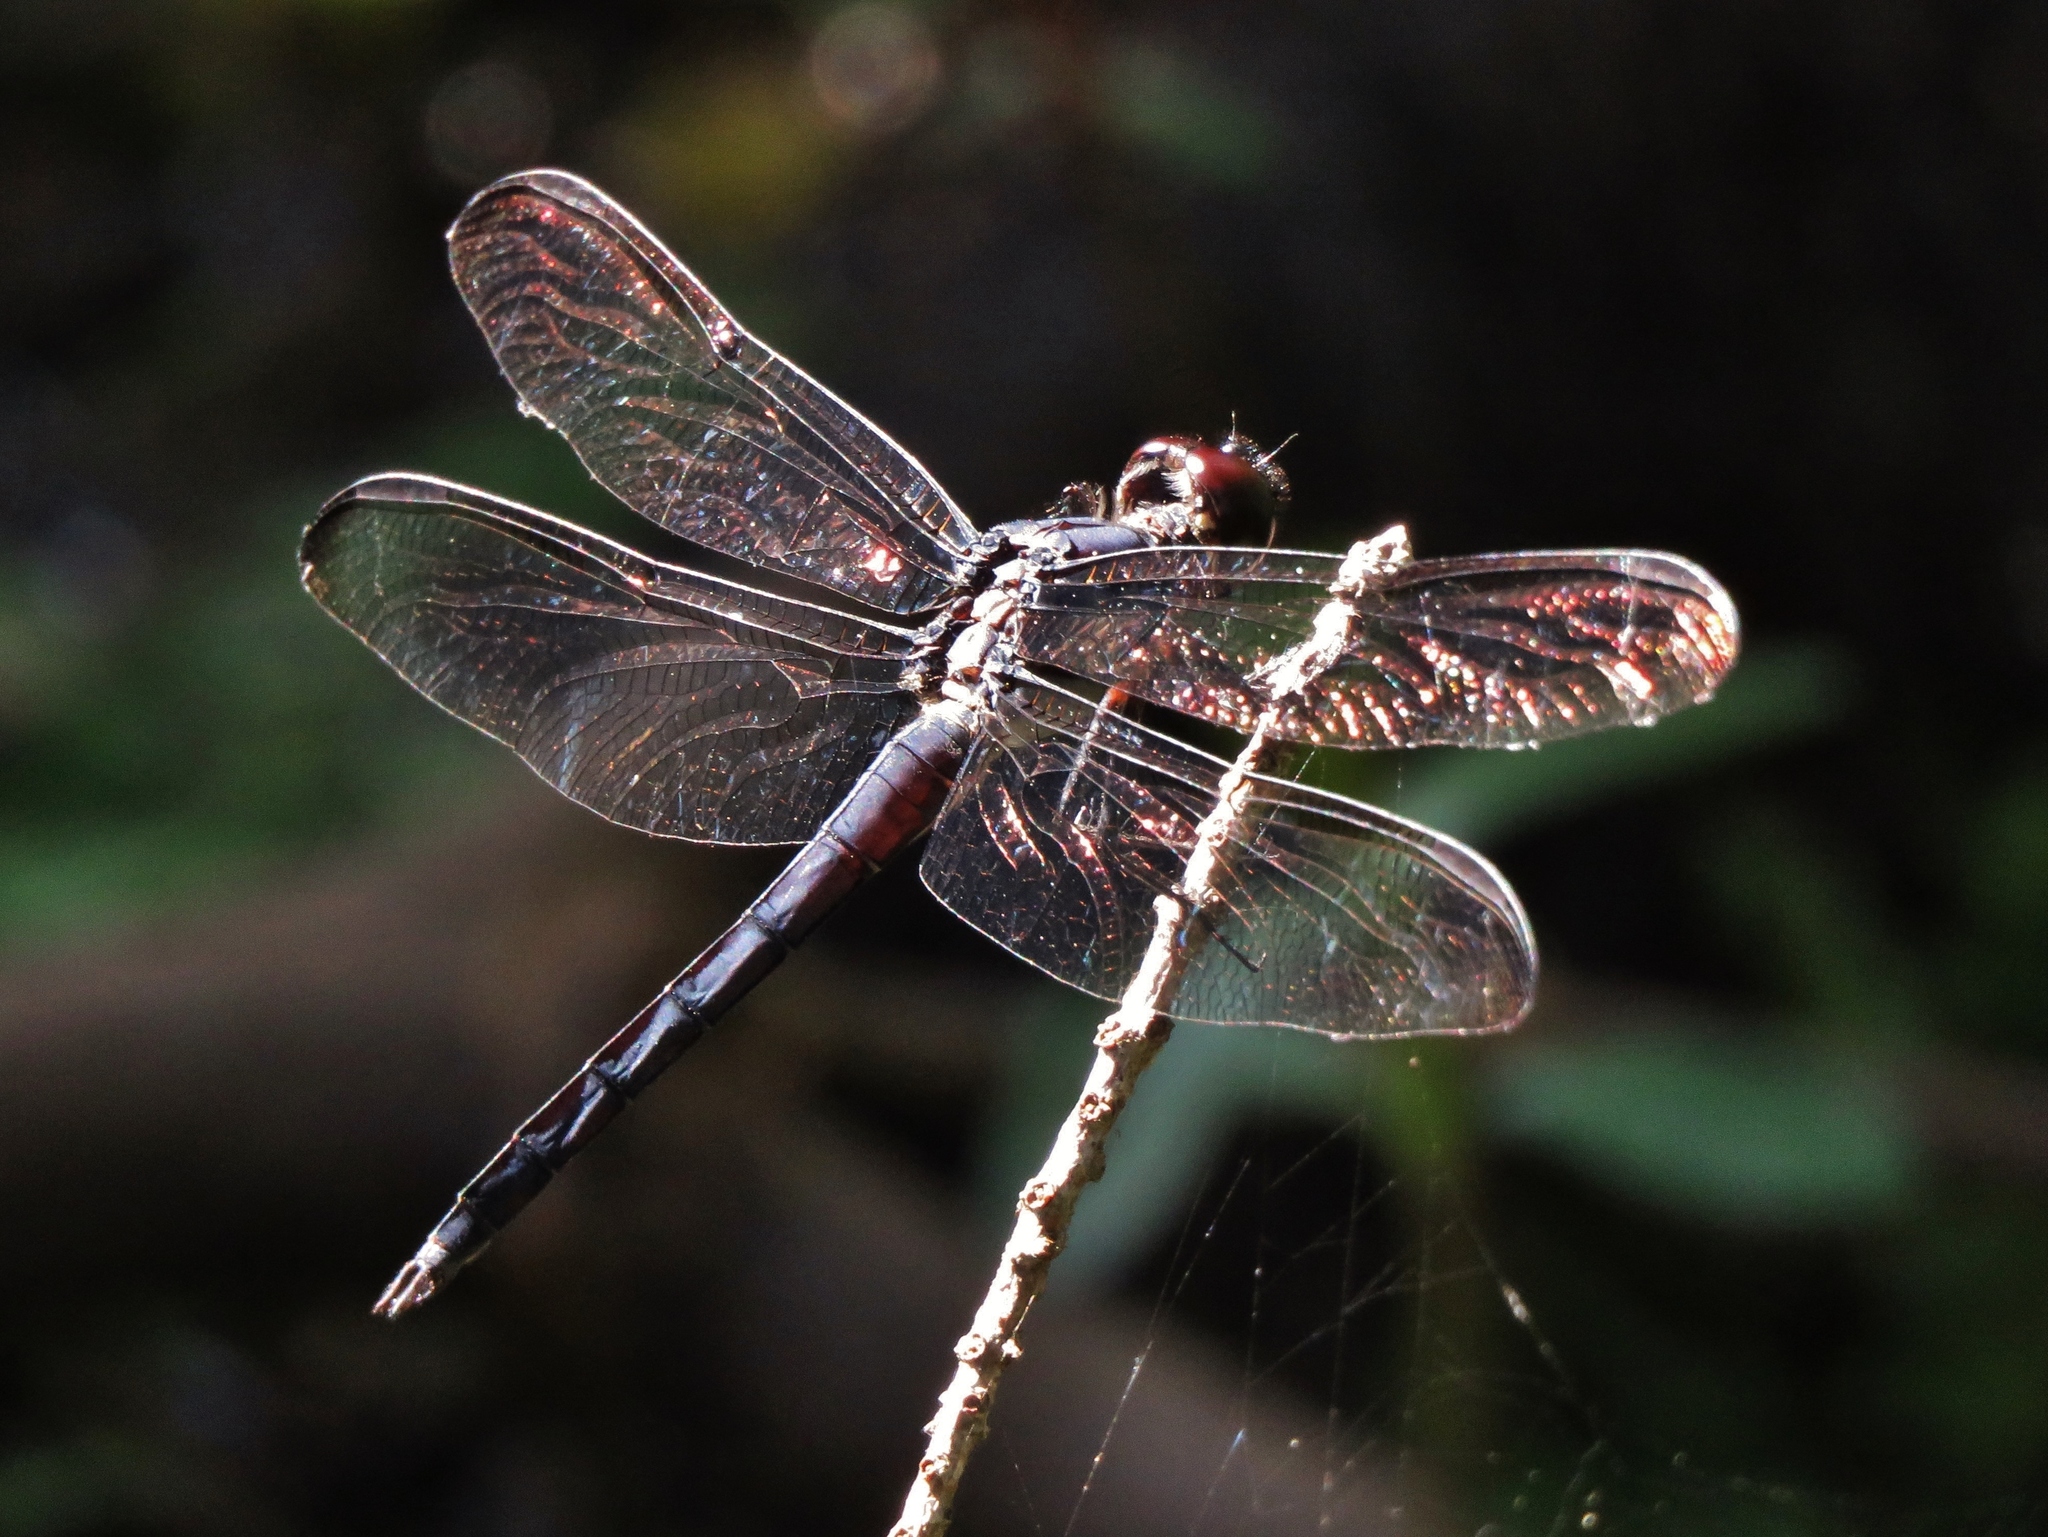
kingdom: Animalia
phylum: Arthropoda
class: Insecta
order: Odonata
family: Libellulidae
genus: Libellula
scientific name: Libellula incesta
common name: Slaty skimmer
